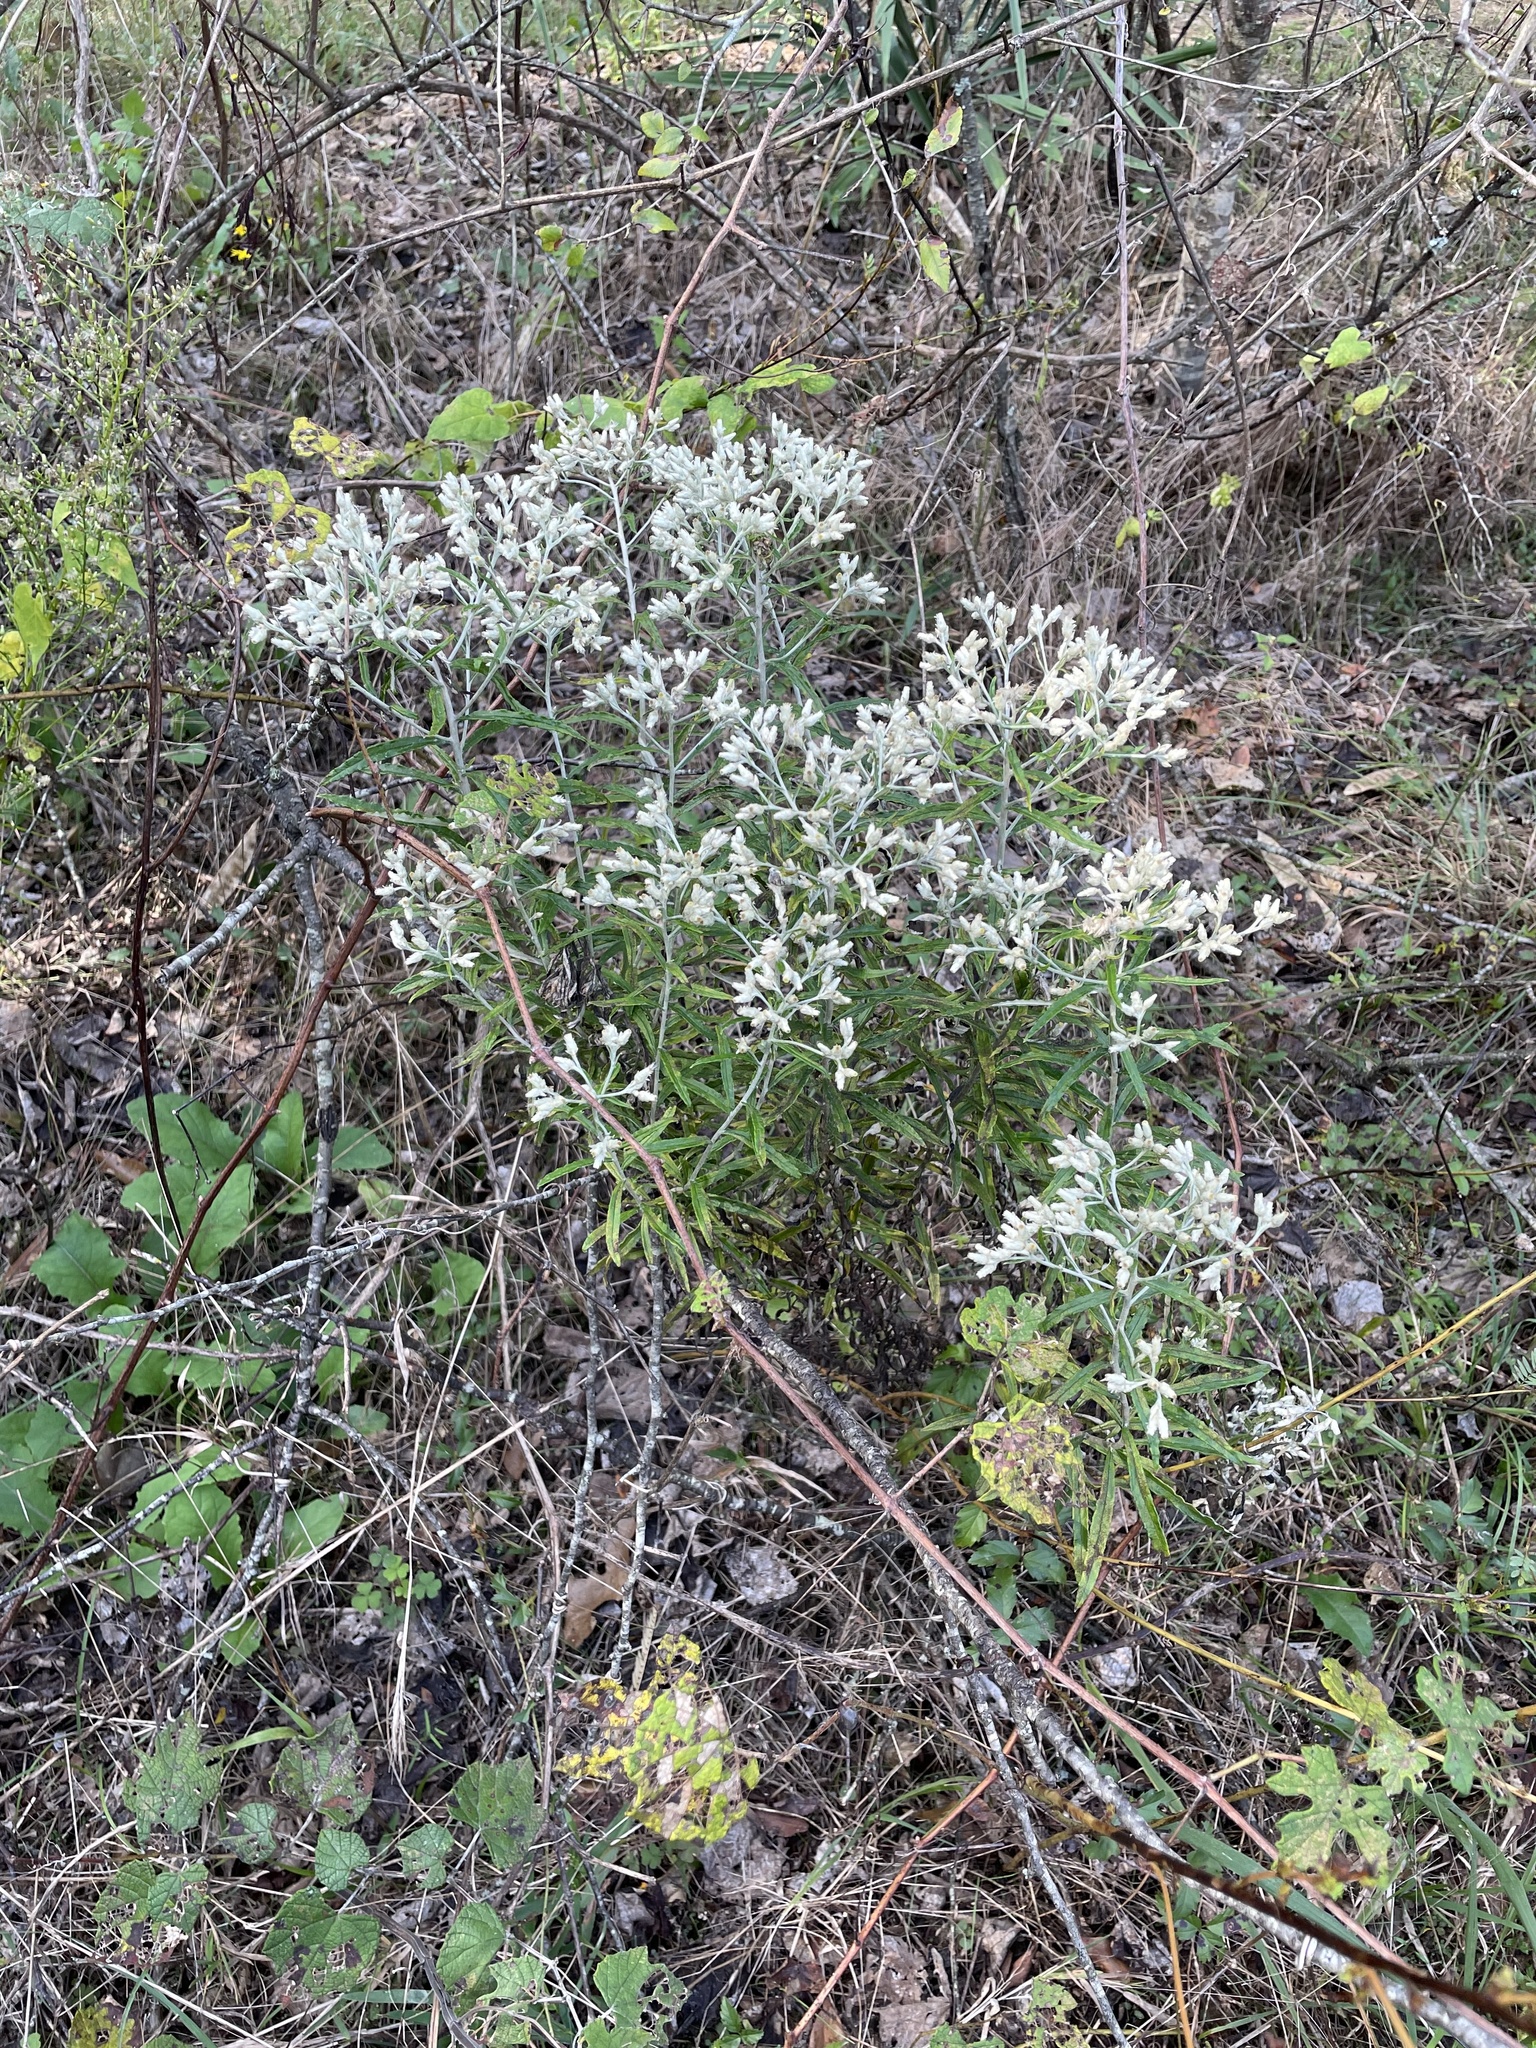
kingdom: Plantae
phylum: Tracheophyta
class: Magnoliopsida
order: Asterales
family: Asteraceae
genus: Pseudognaphalium
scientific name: Pseudognaphalium obtusifolium
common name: Eastern rabbit-tobacco
